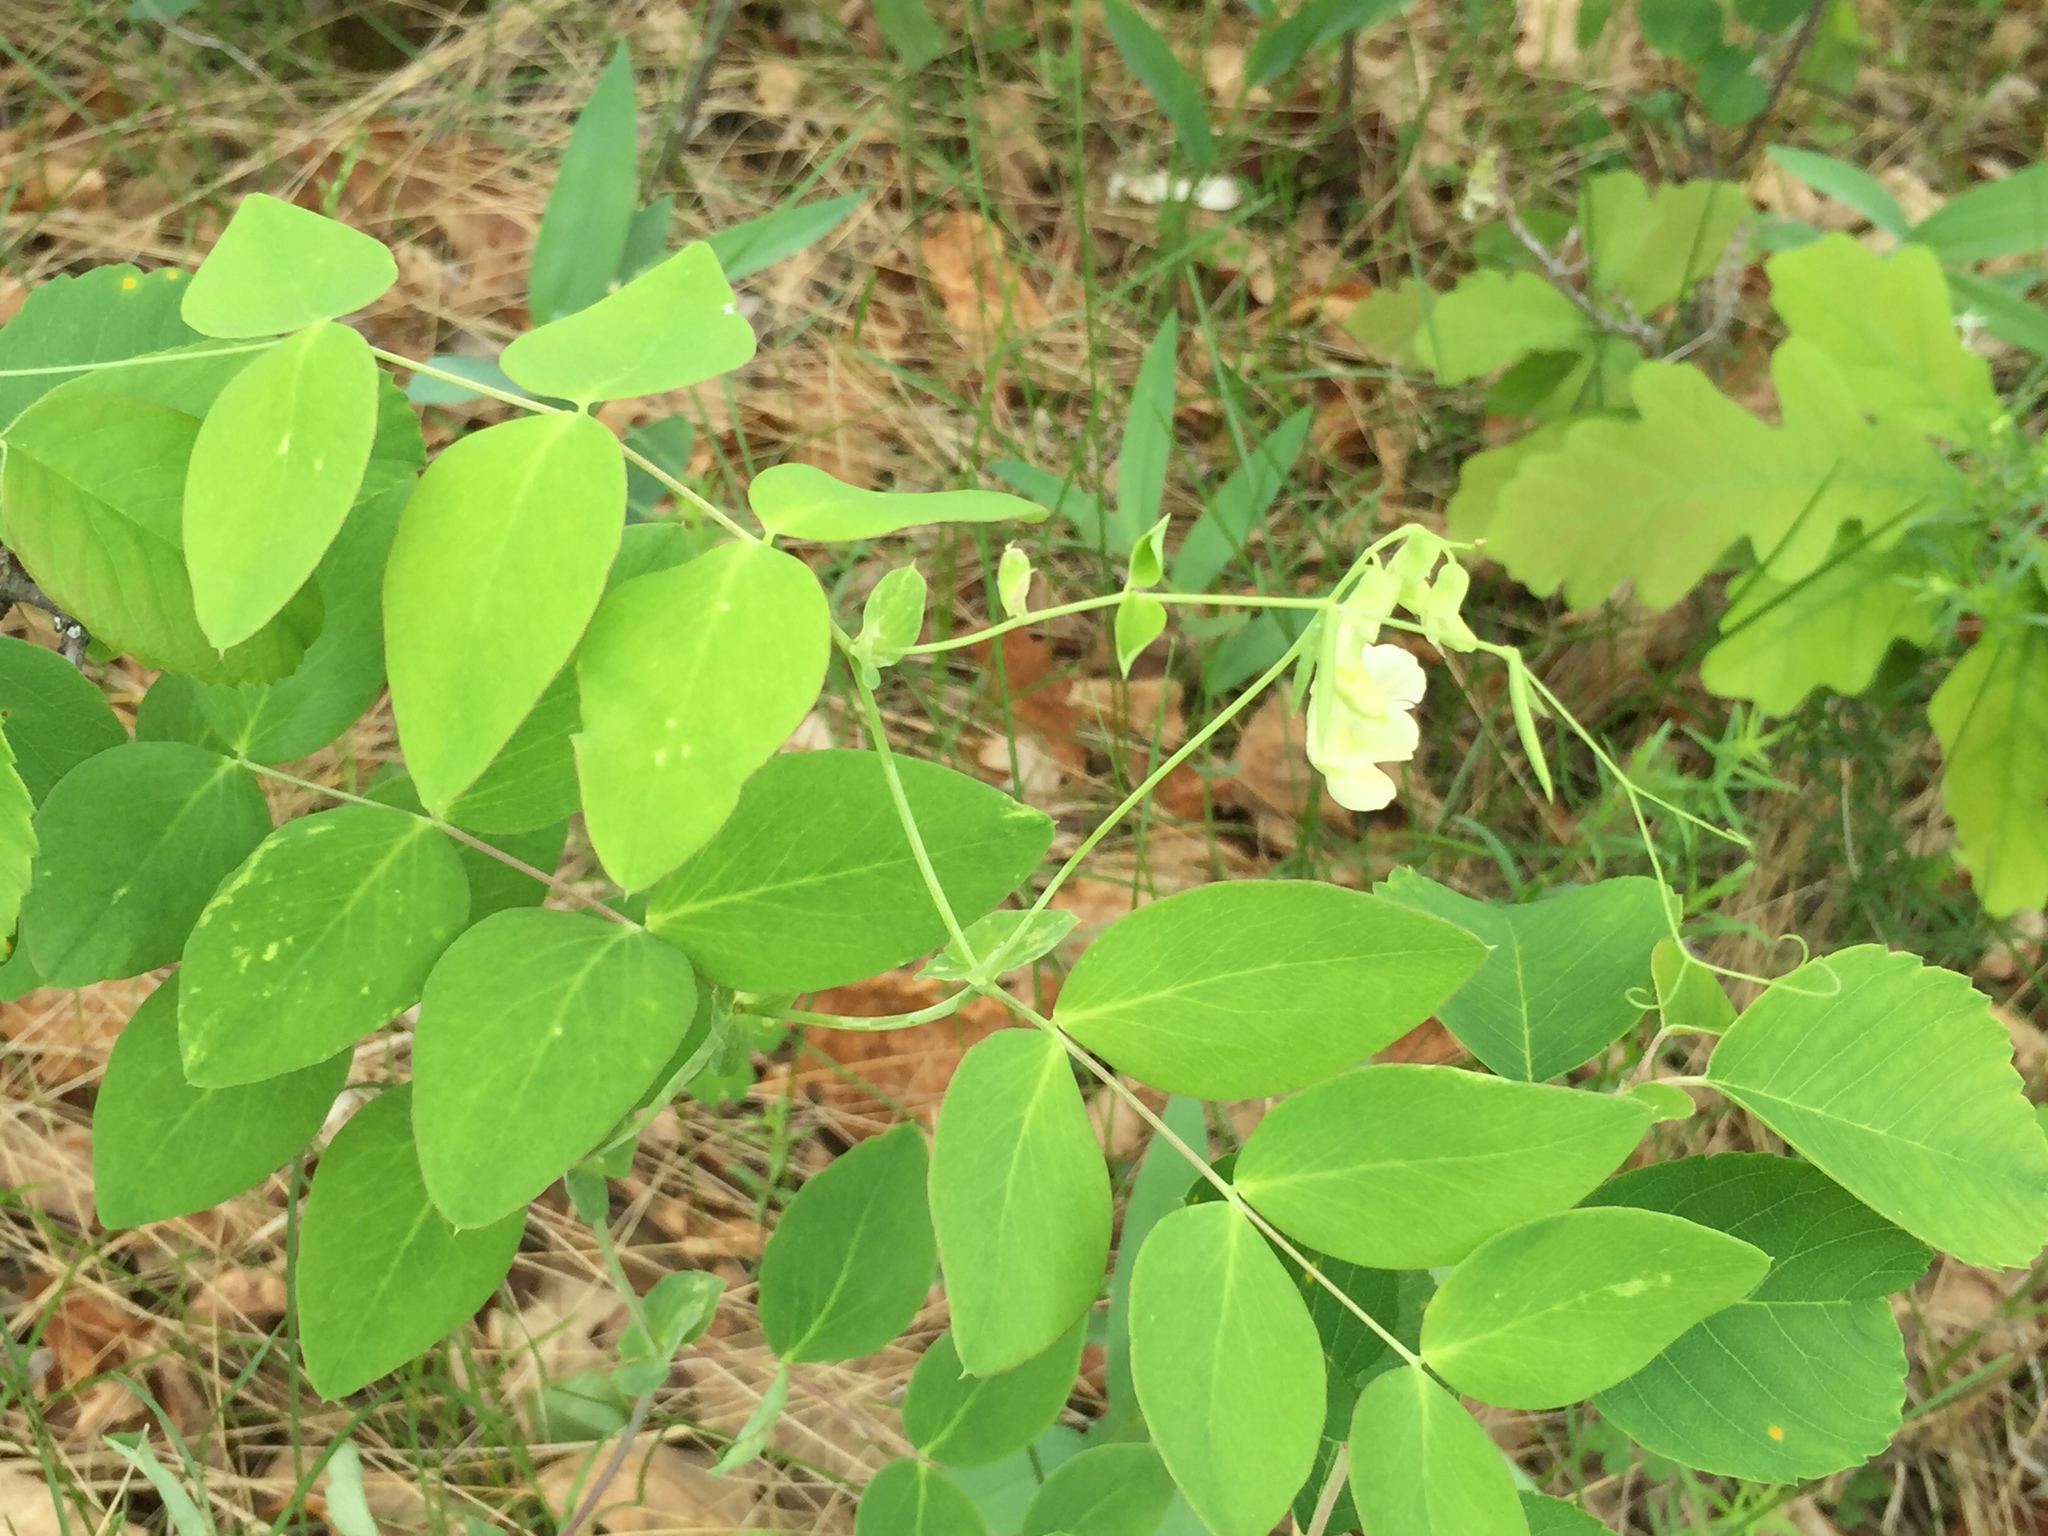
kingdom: Plantae
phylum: Tracheophyta
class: Magnoliopsida
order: Fabales
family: Fabaceae
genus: Lathyrus
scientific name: Lathyrus ochroleucus
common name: Pale vetchling
